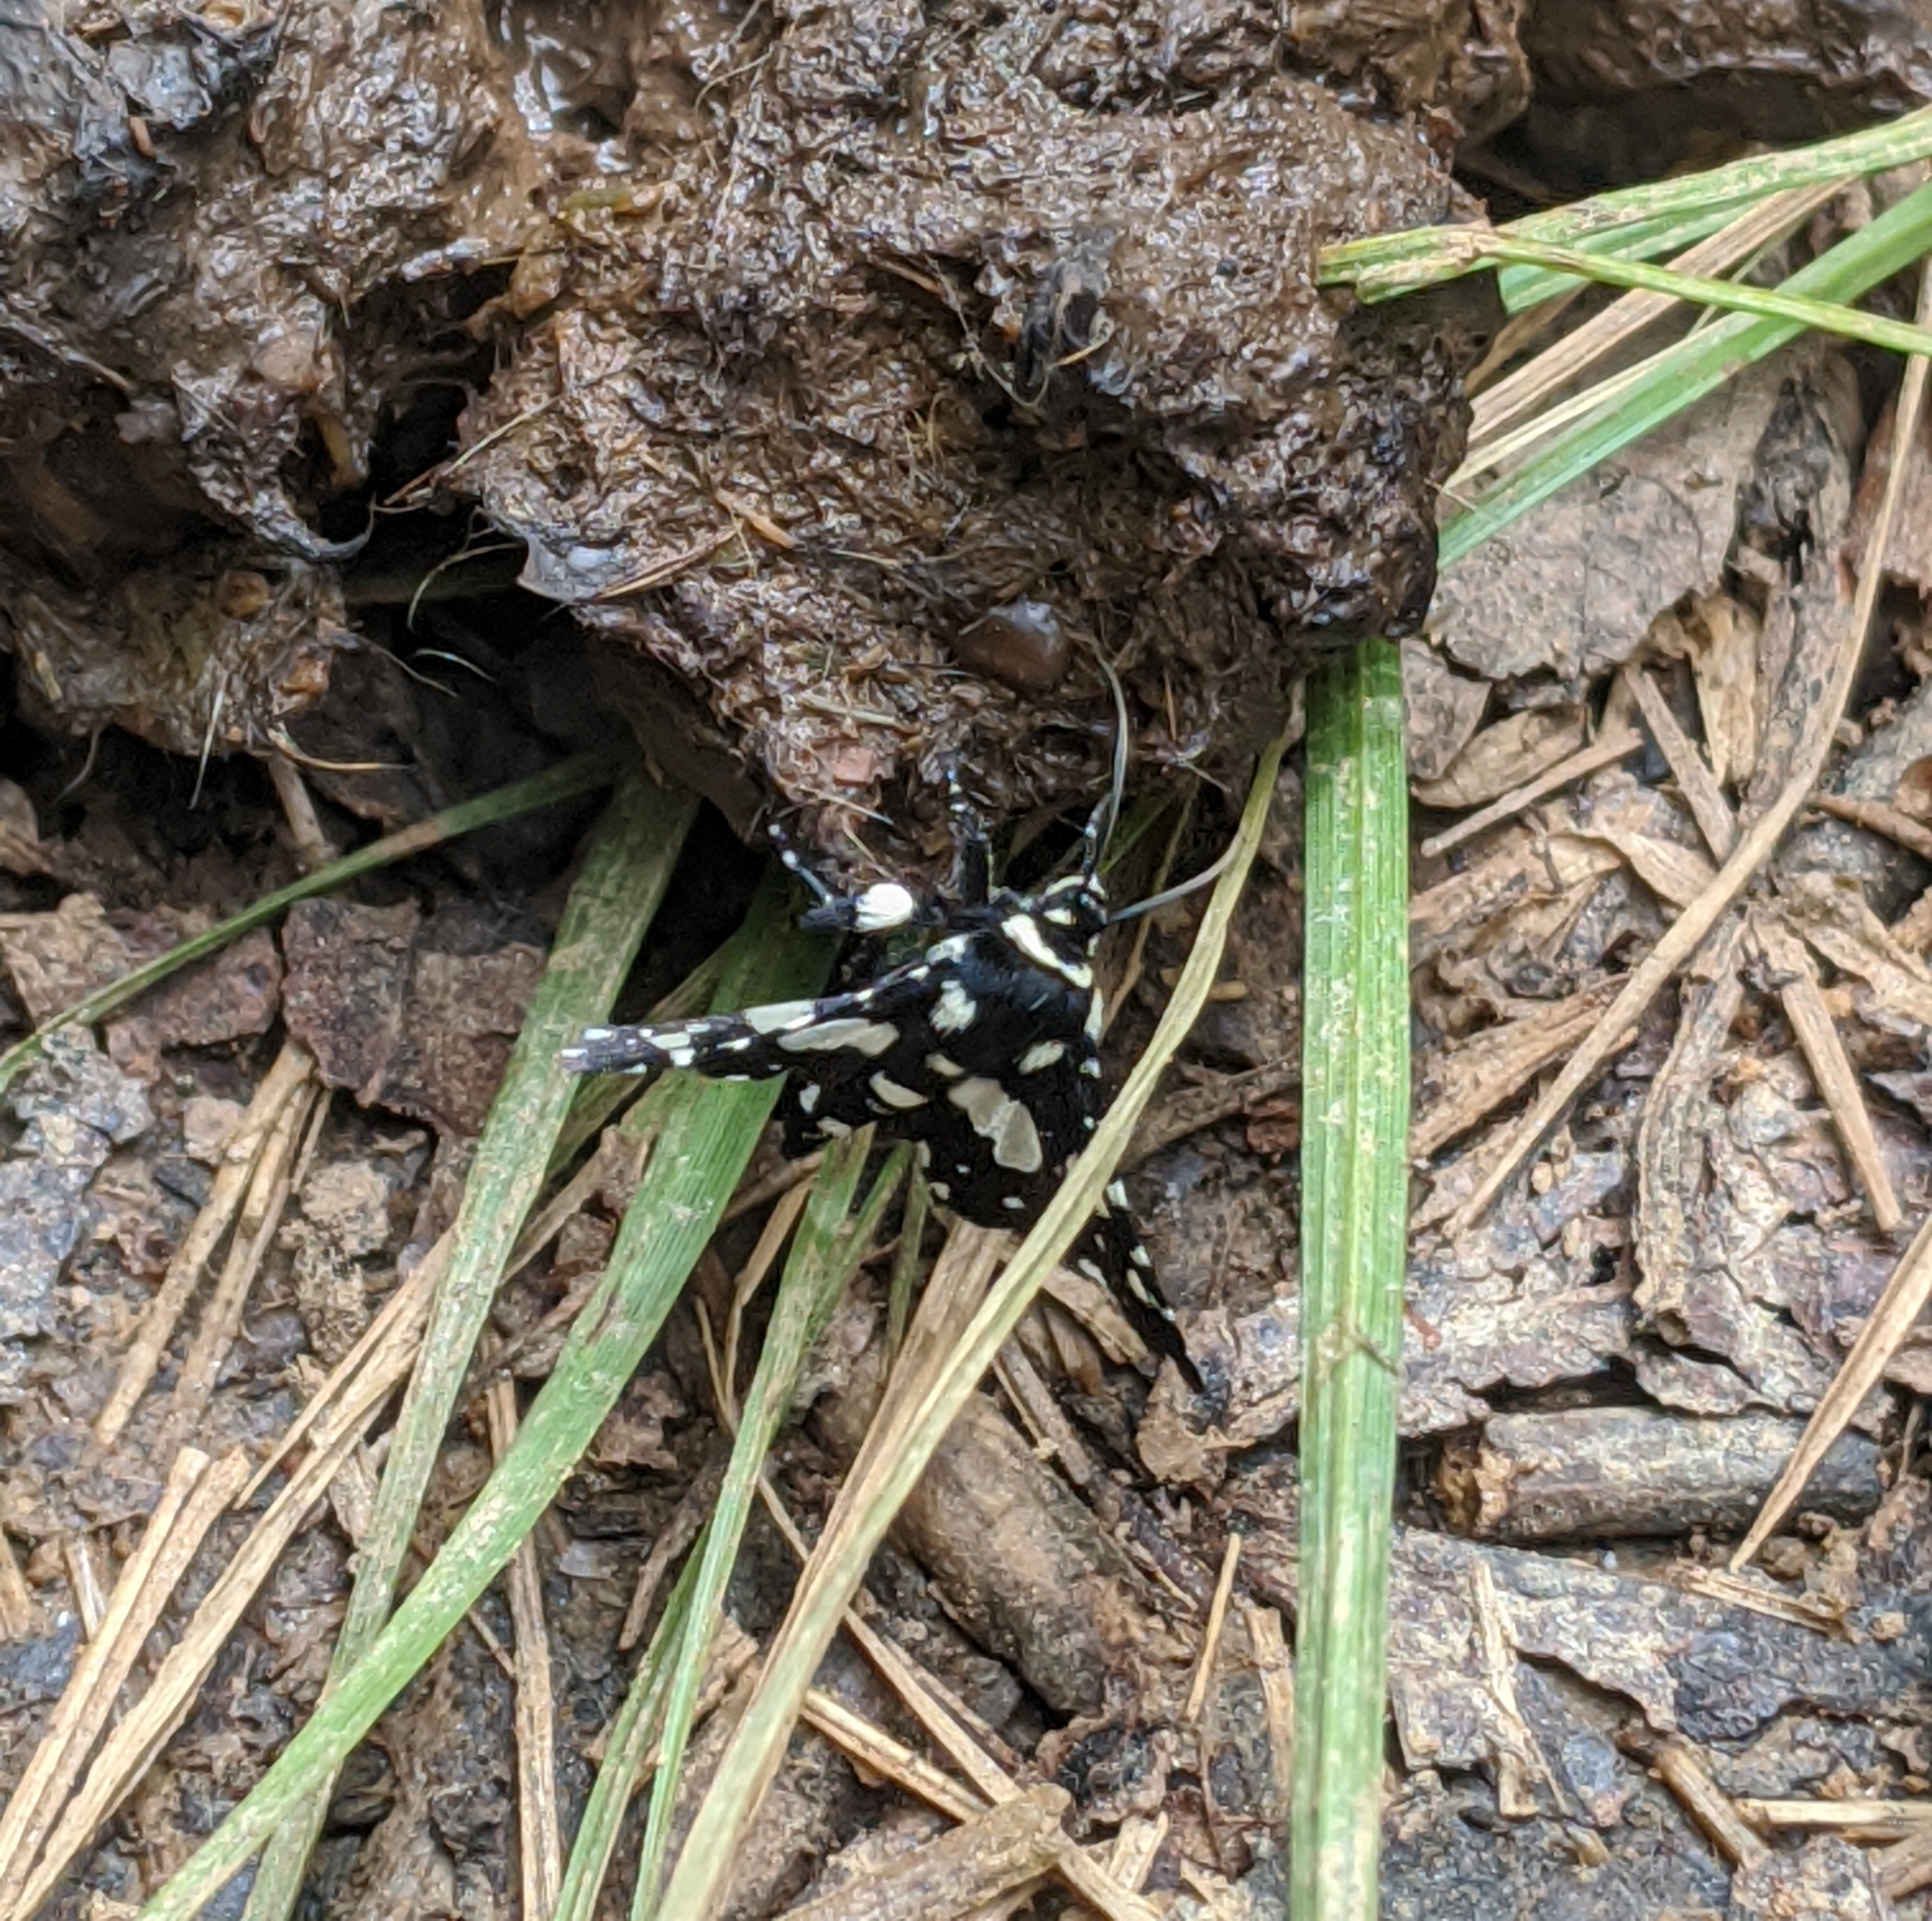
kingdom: Animalia
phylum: Arthropoda
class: Insecta
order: Lepidoptera
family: Thyrididae
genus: Pseudothyris
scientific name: Pseudothyris sepulchralis
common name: Mournful thyris moth
